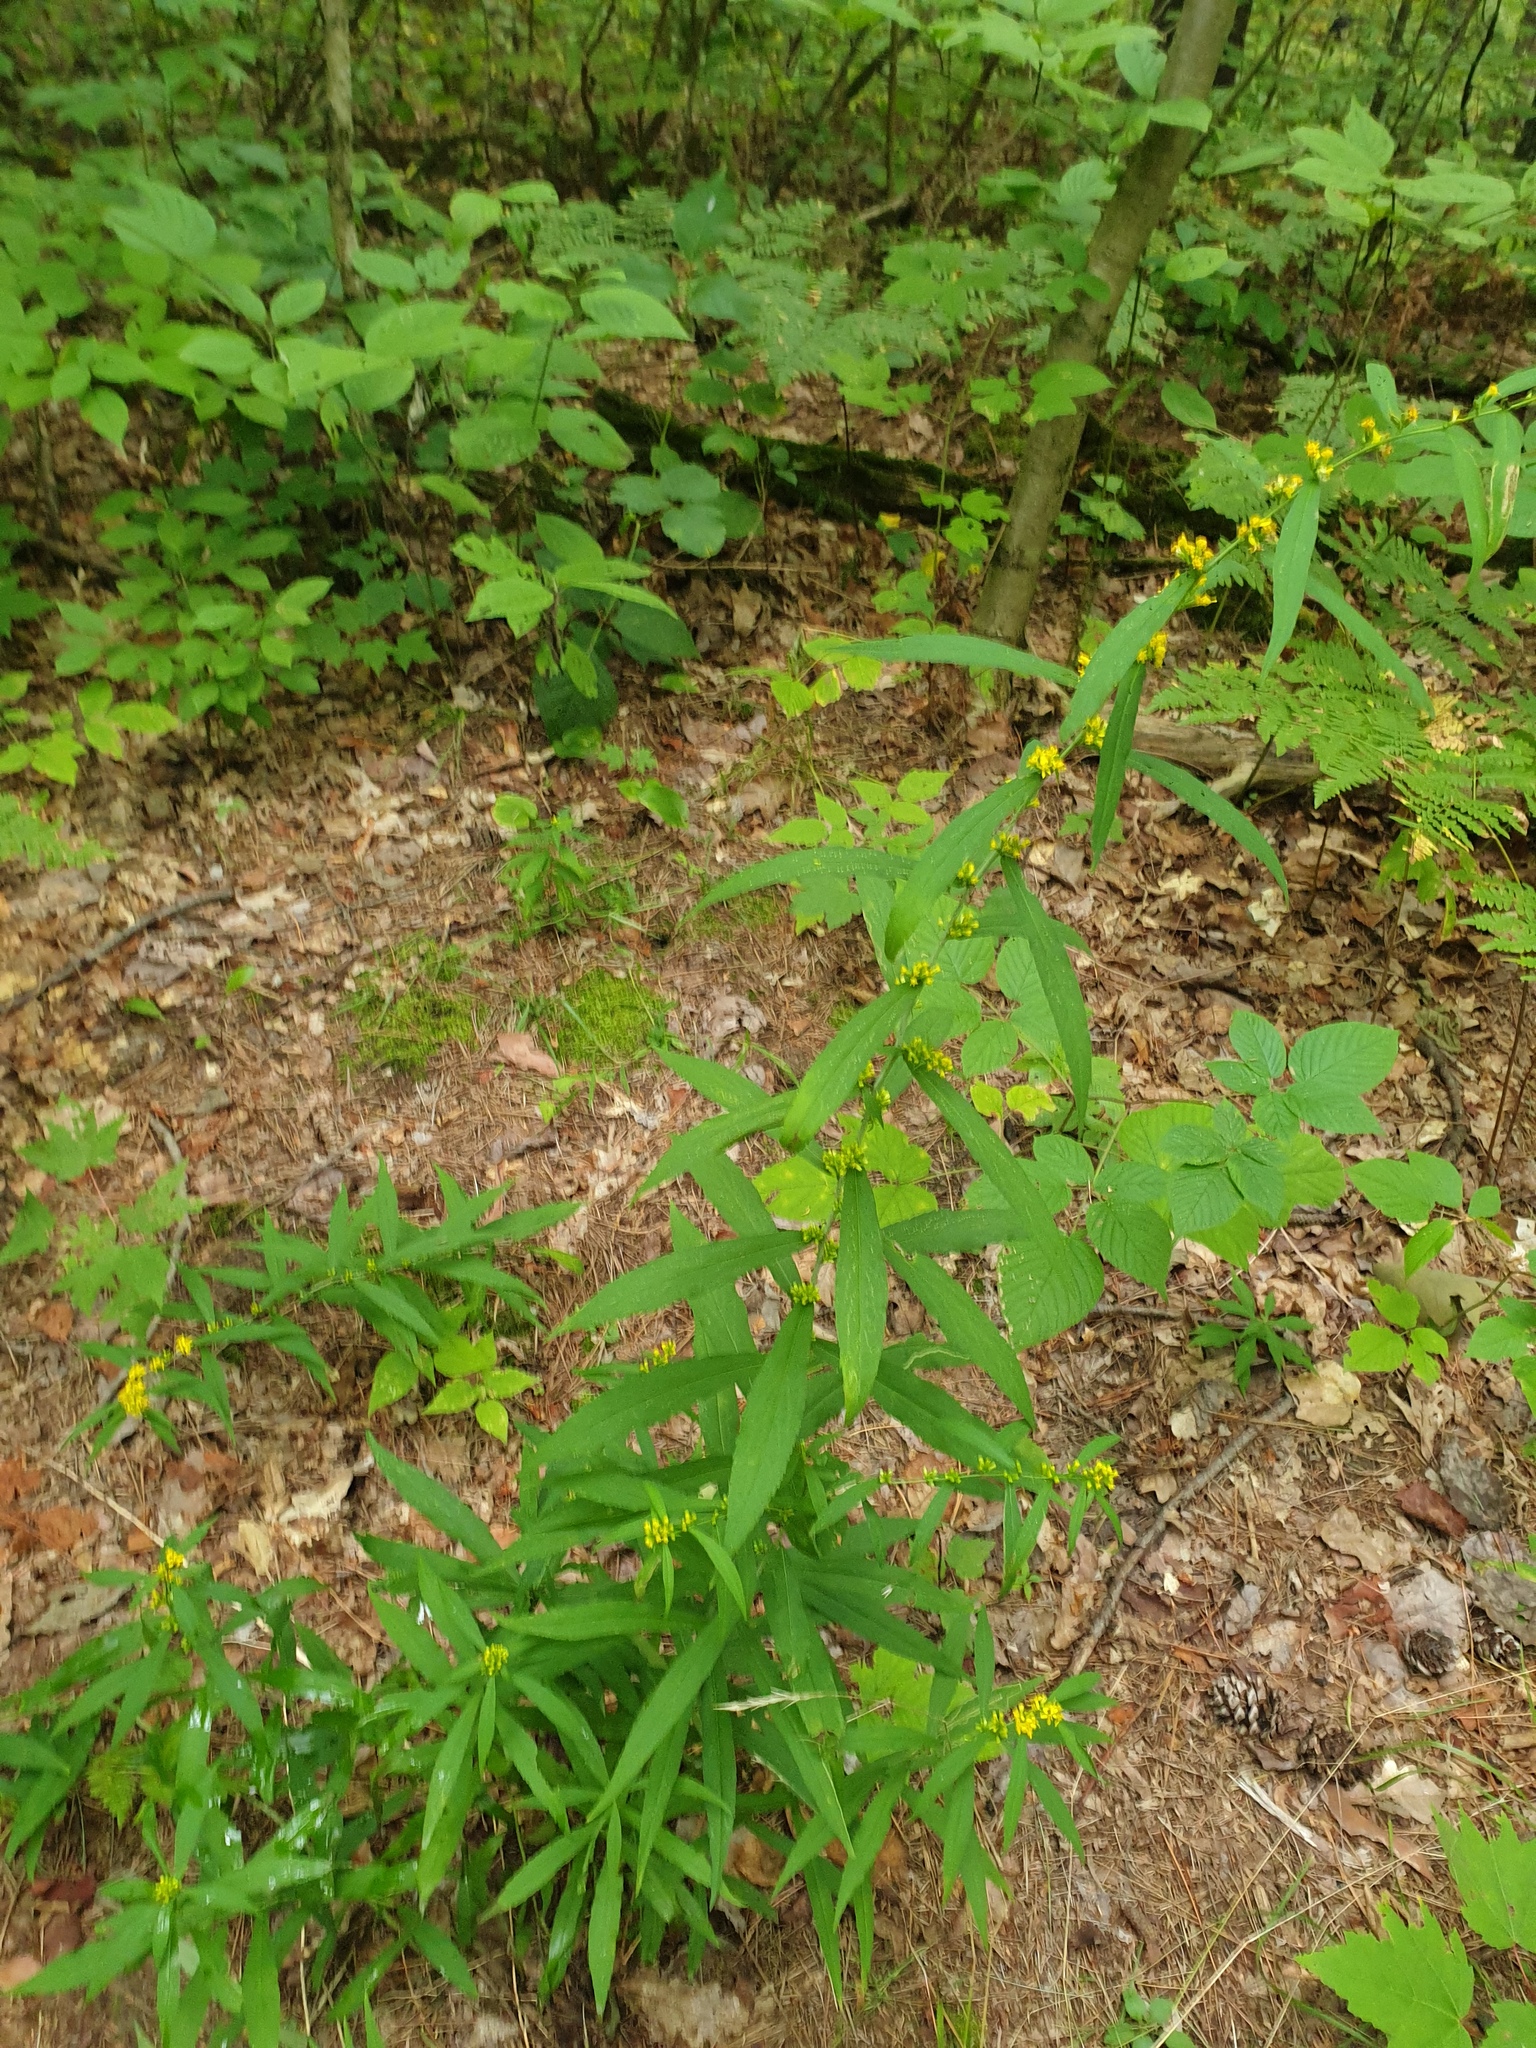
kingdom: Plantae
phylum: Tracheophyta
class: Magnoliopsida
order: Asterales
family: Asteraceae
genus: Solidago
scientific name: Solidago caesia
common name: Woodland goldenrod
